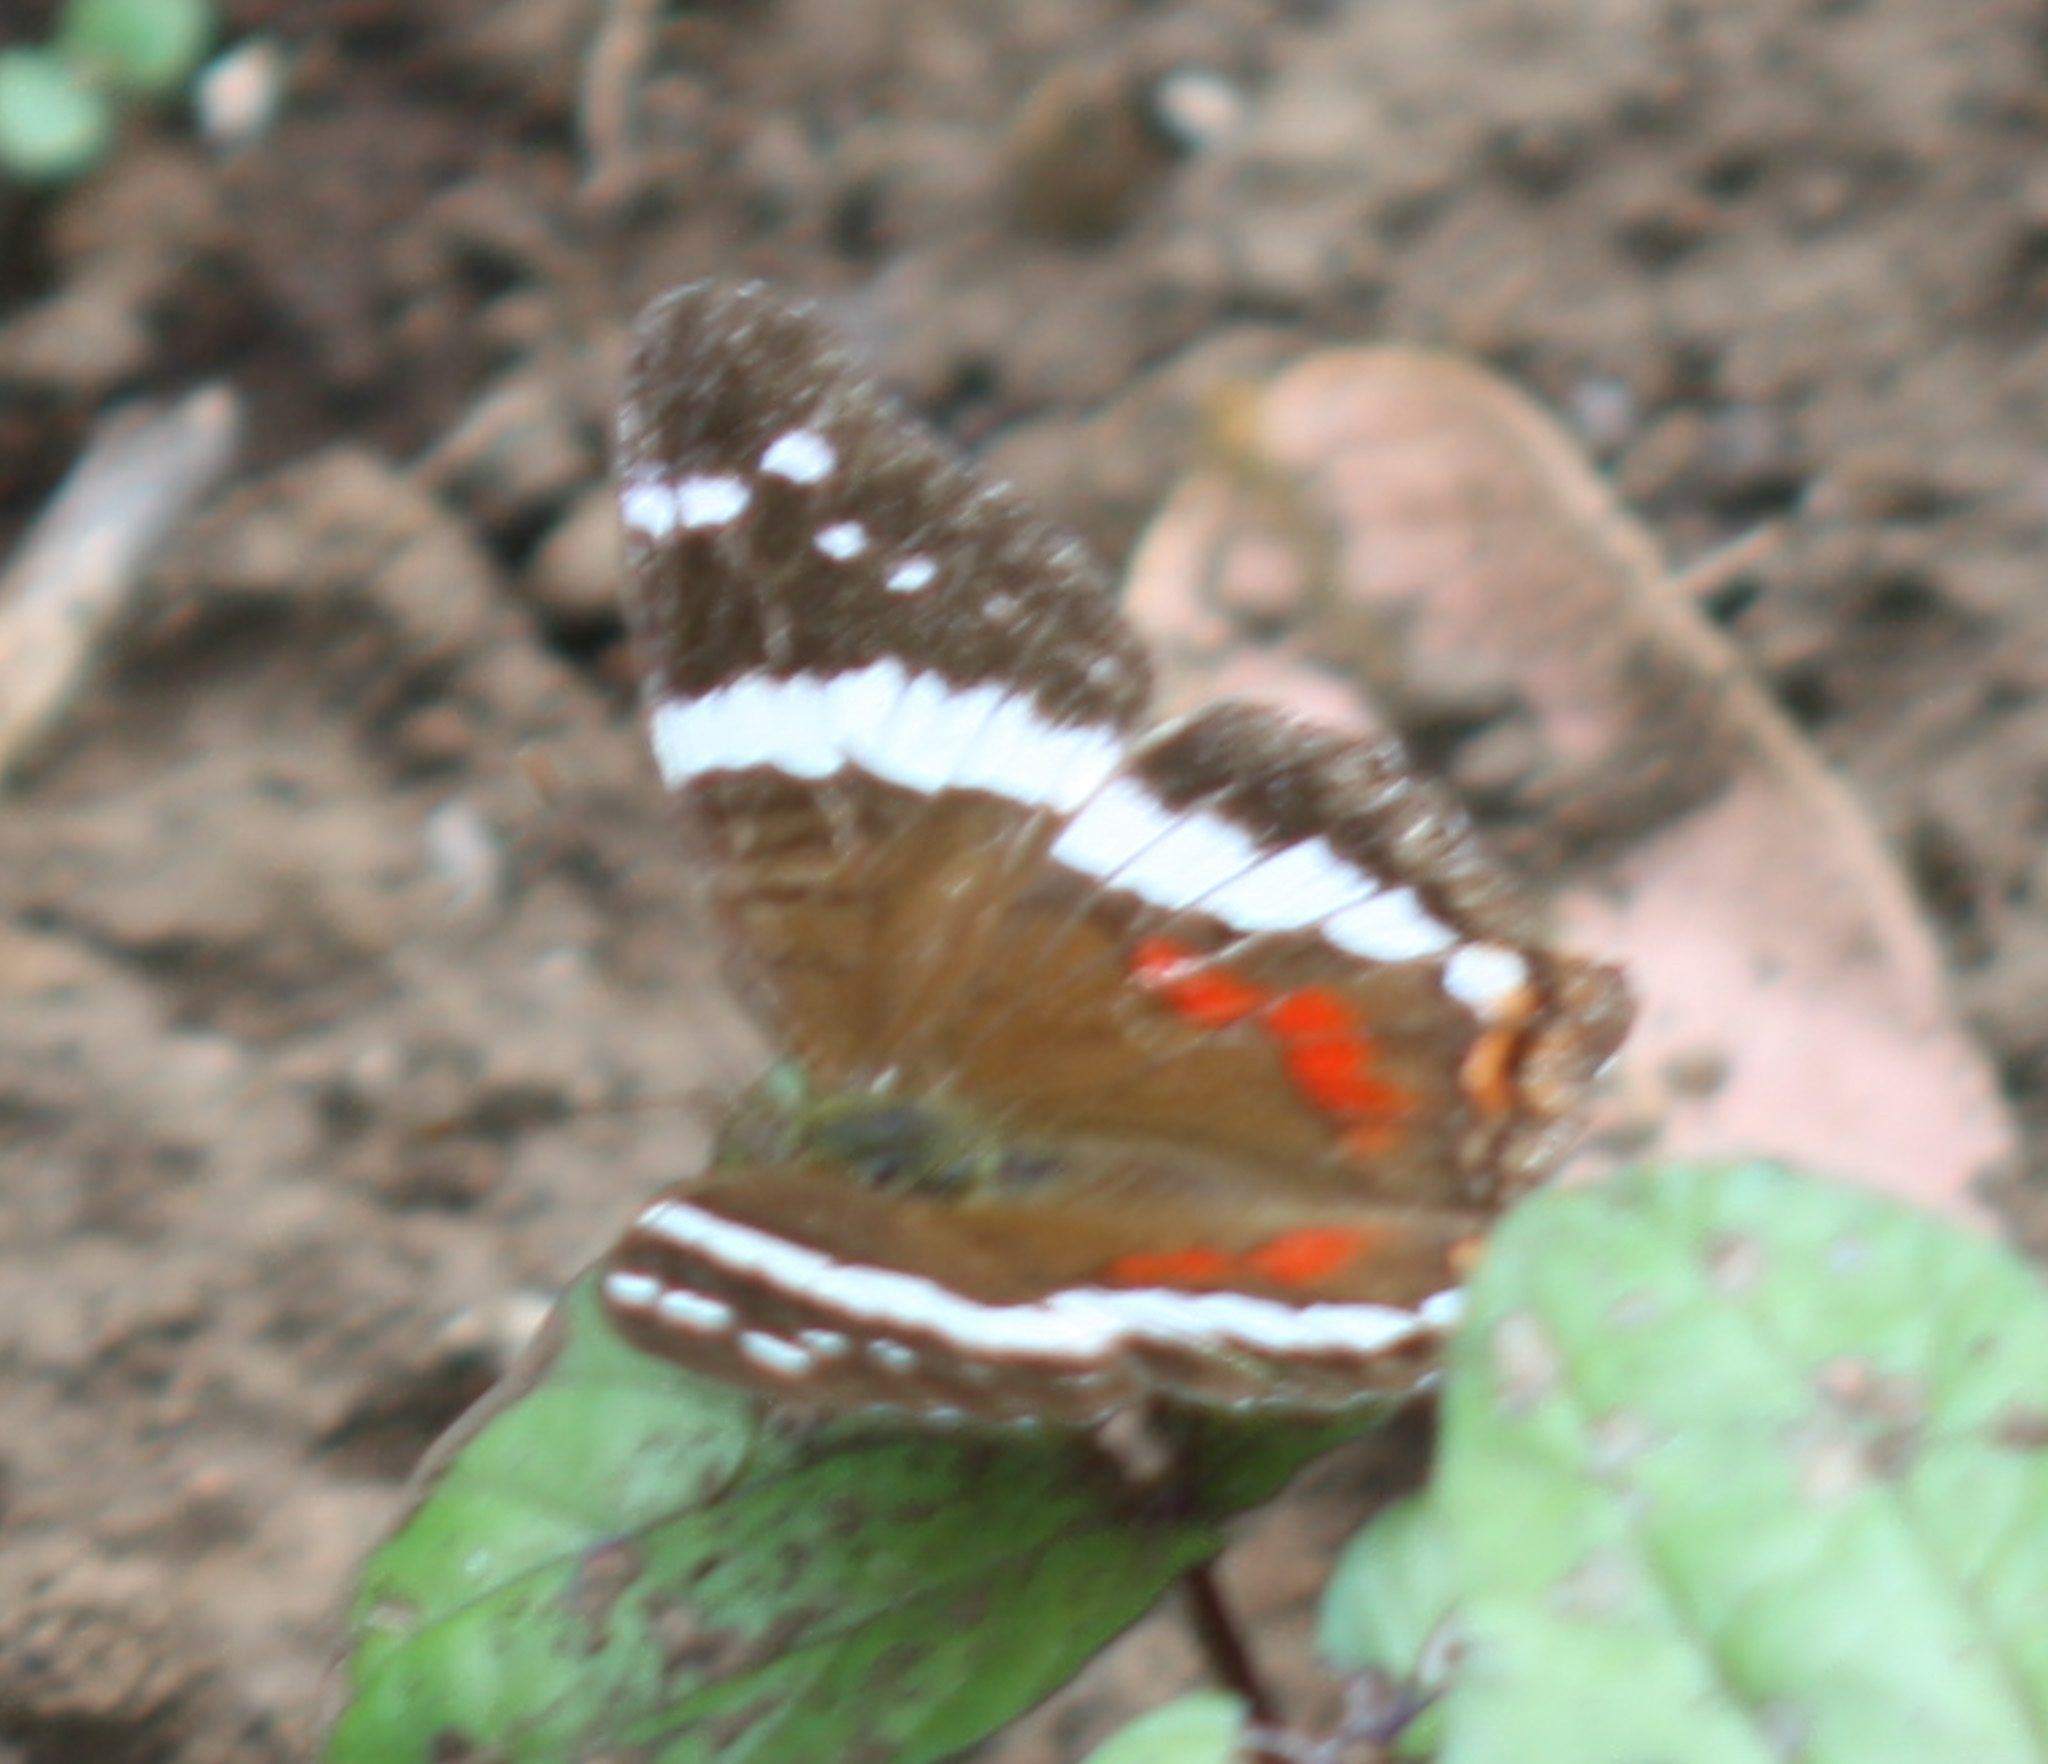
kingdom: Animalia
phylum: Arthropoda
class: Insecta
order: Lepidoptera
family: Nymphalidae
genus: Anartia
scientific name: Anartia fatima
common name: Banded peacock
